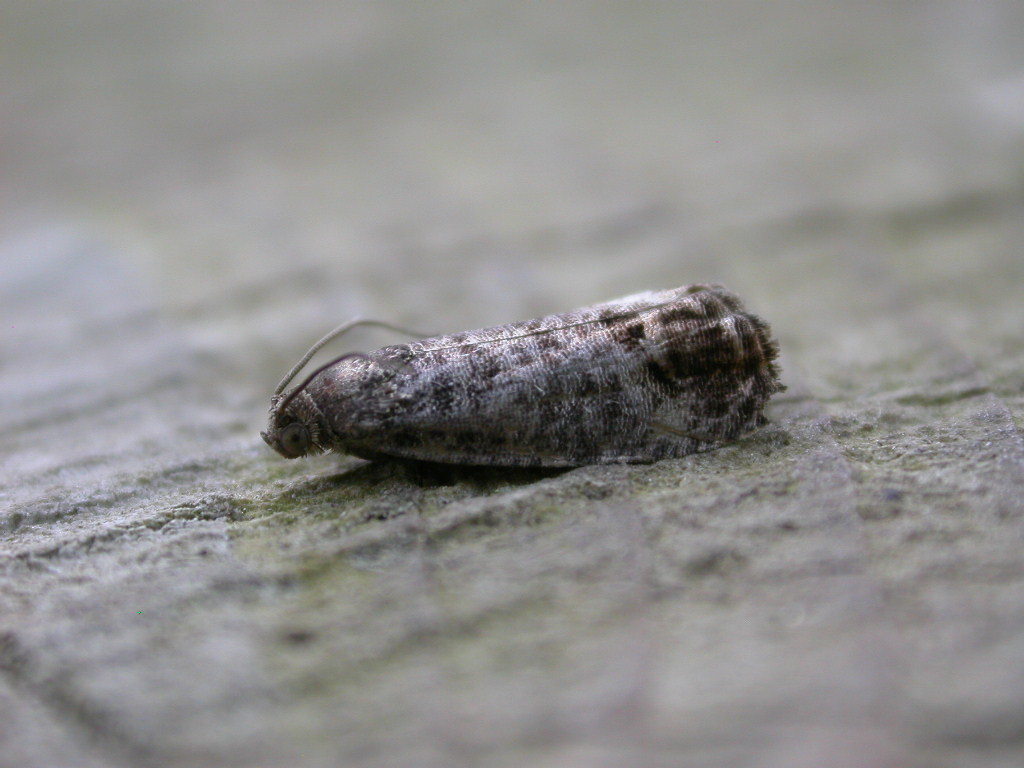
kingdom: Animalia
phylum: Arthropoda
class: Insecta
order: Lepidoptera
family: Tortricidae
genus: Cydia
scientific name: Cydia pomonella
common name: Codling moth
